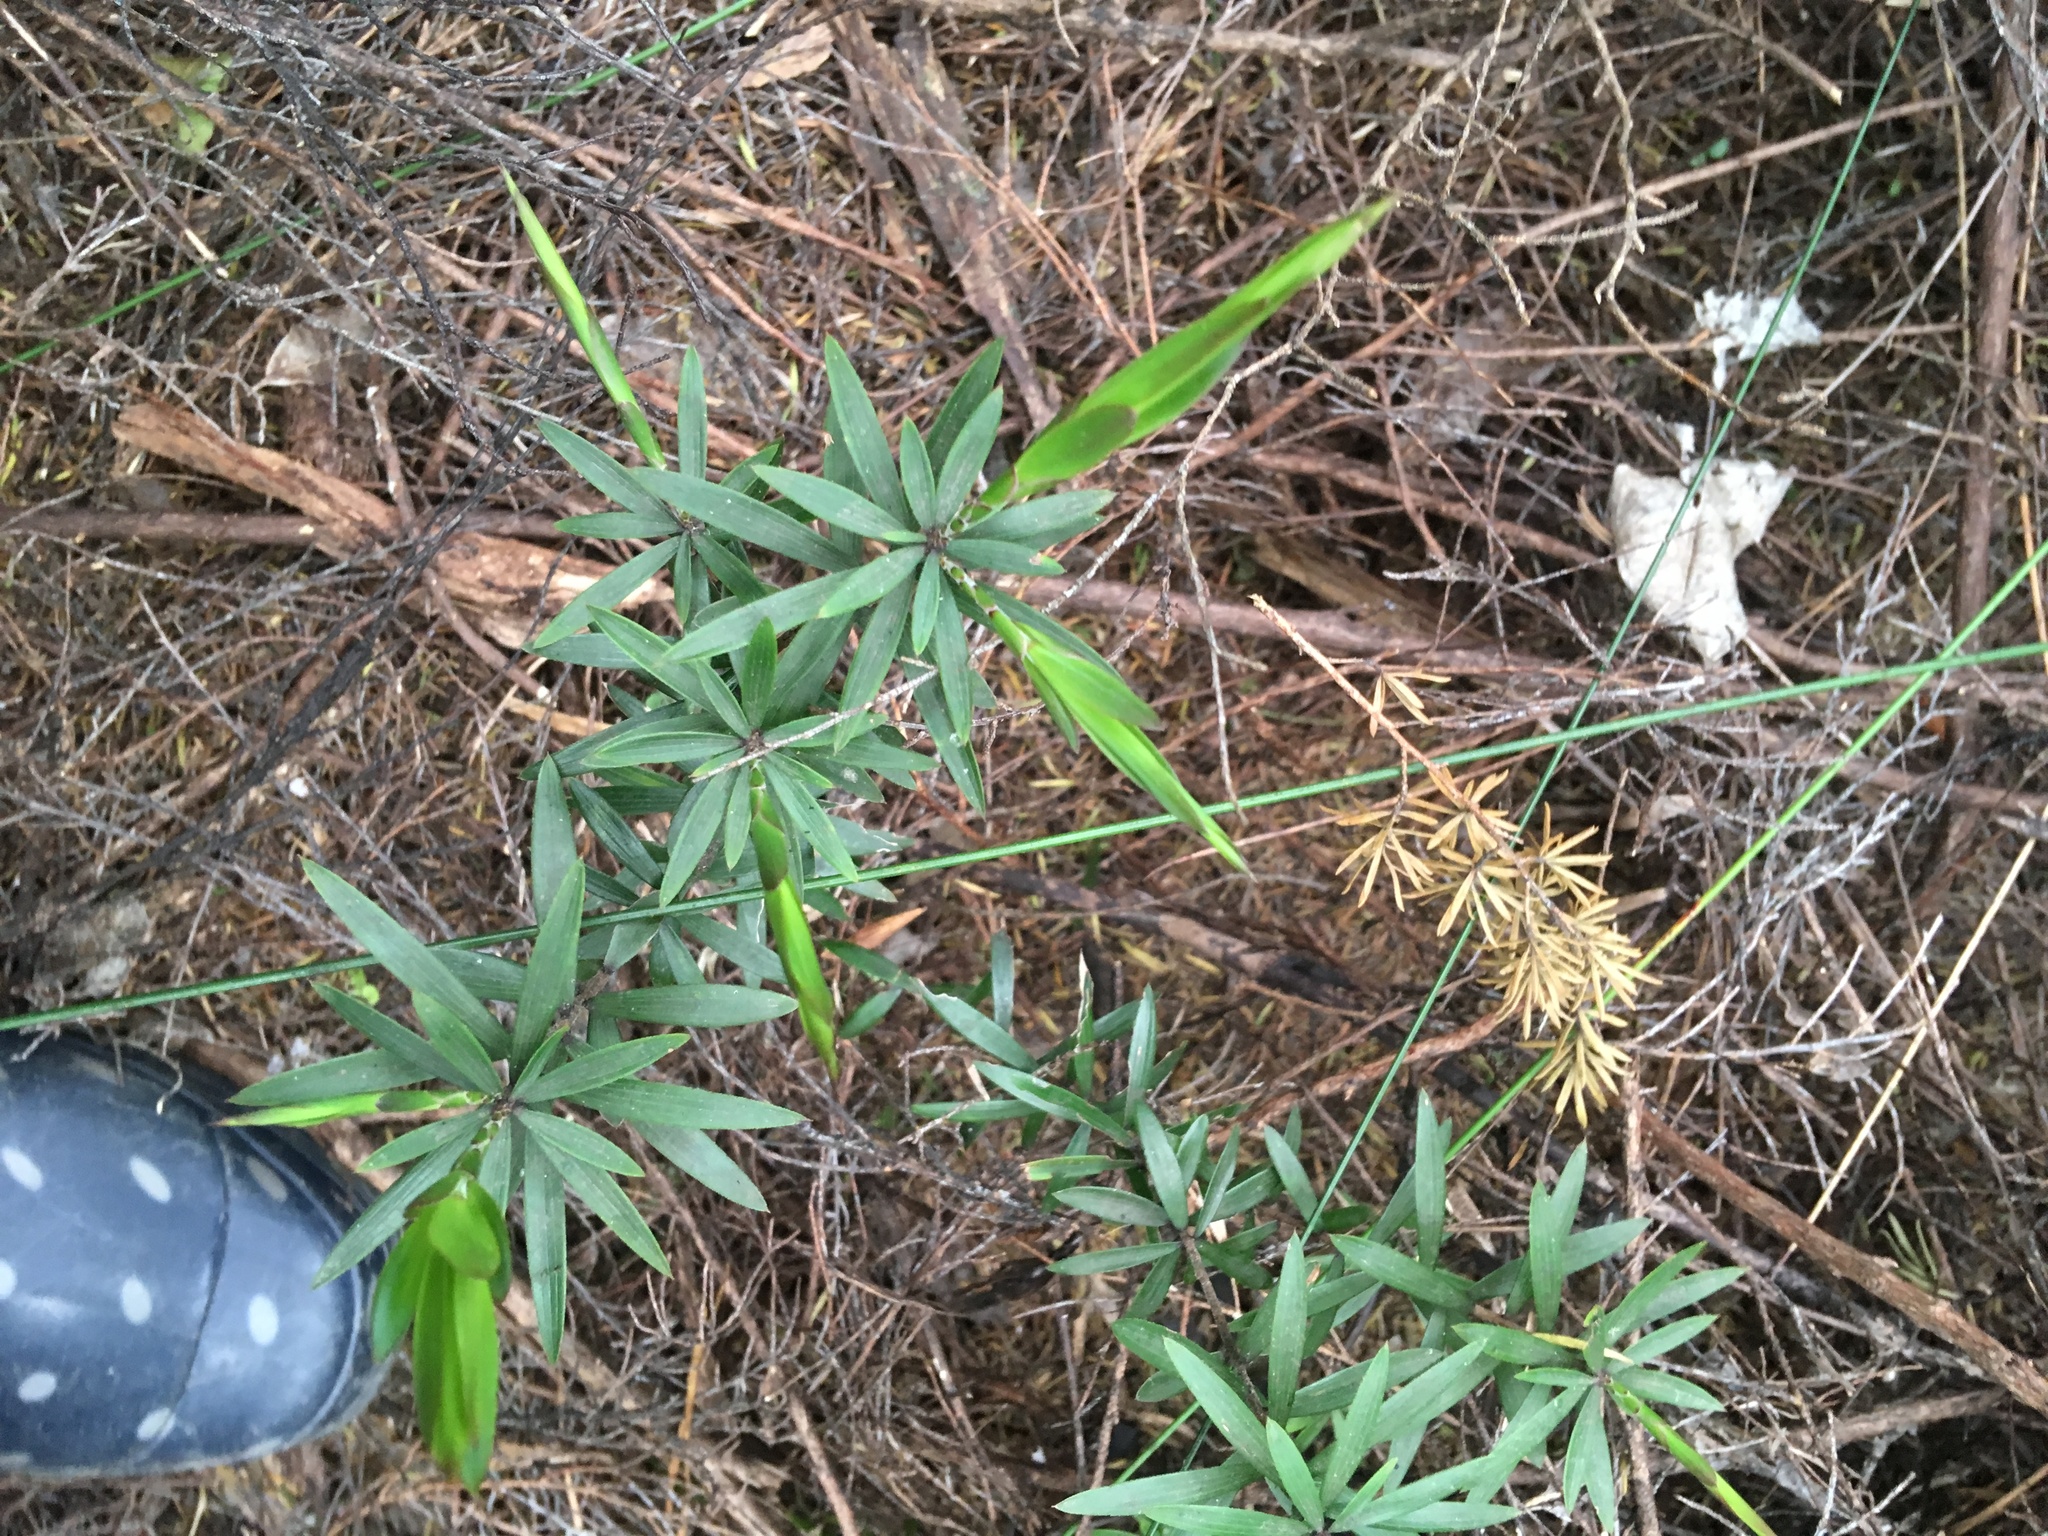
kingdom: Plantae
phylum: Tracheophyta
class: Magnoliopsida
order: Ericales
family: Ericaceae
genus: Leucopogon
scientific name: Leucopogon fasciculatus
